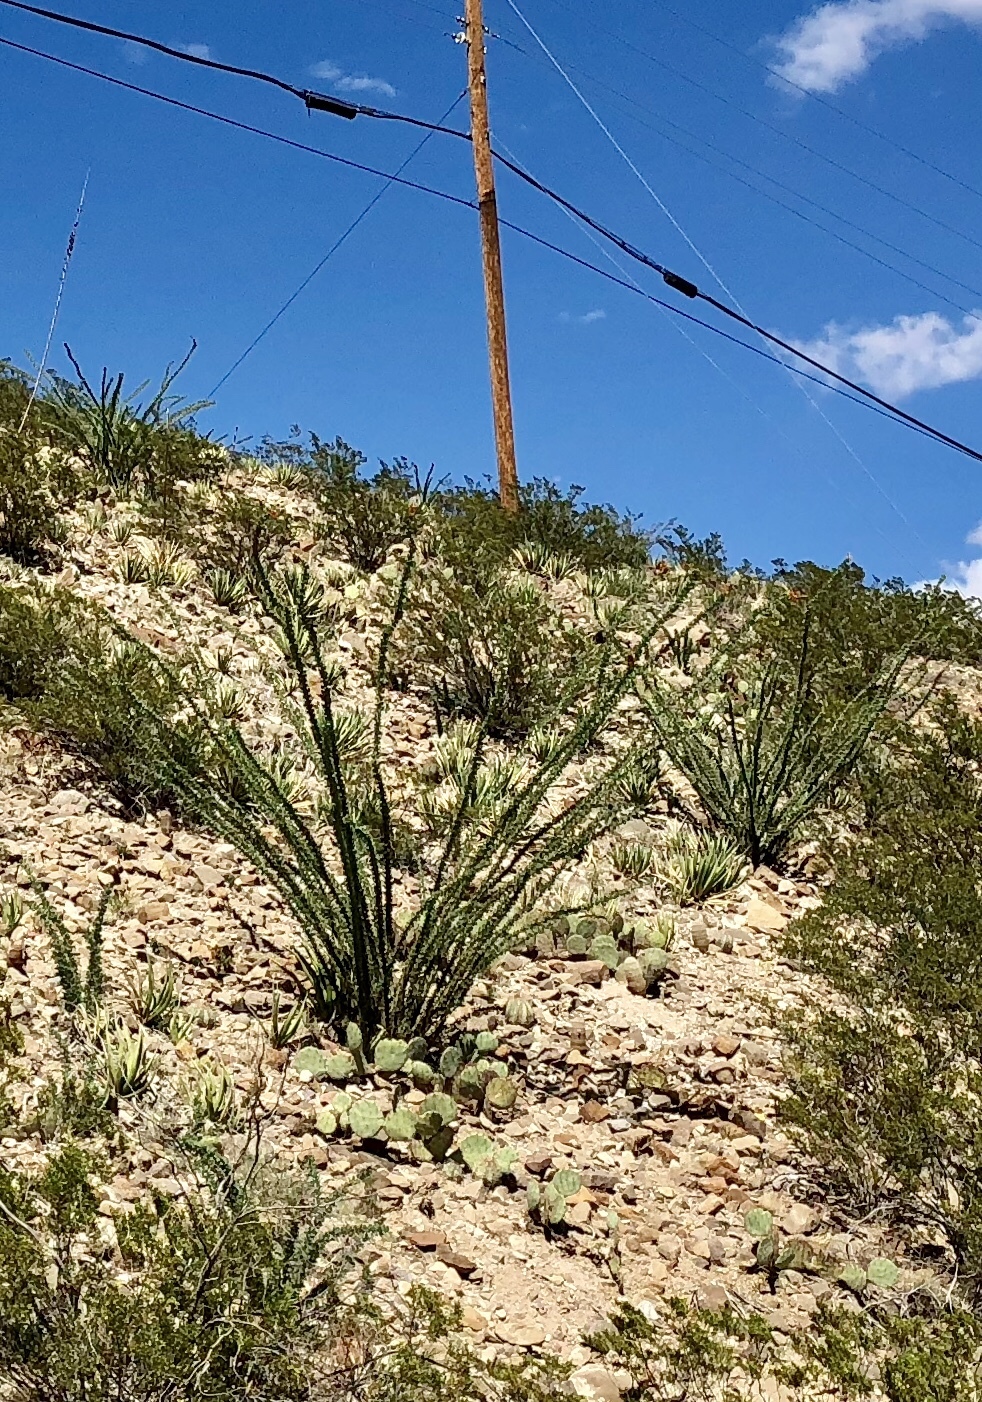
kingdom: Plantae
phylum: Tracheophyta
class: Magnoliopsida
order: Ericales
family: Fouquieriaceae
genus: Fouquieria
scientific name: Fouquieria splendens
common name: Vine-cactus
